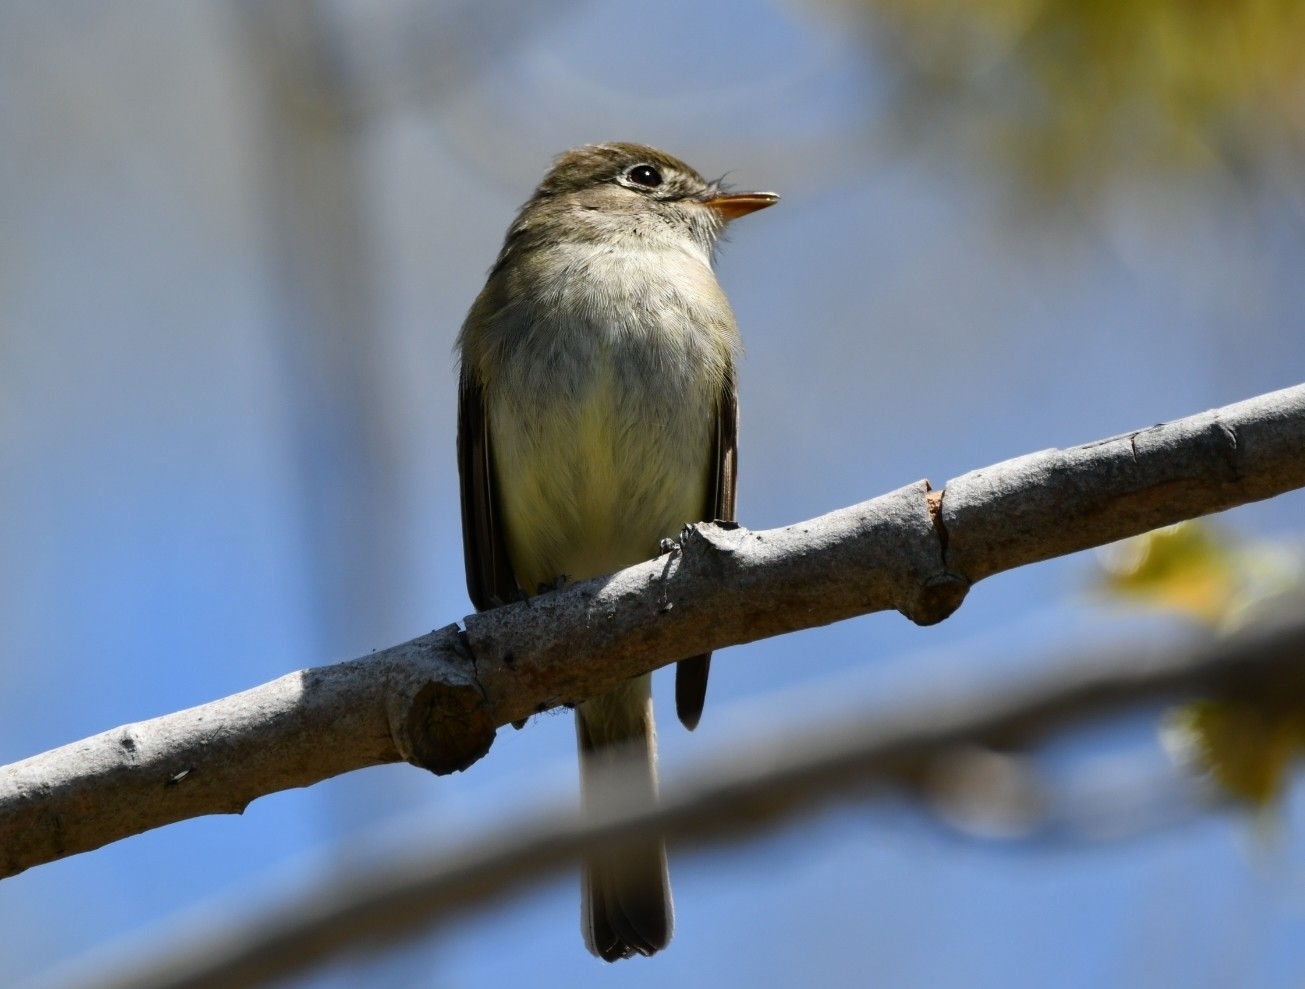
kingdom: Animalia
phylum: Chordata
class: Aves
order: Passeriformes
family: Tyrannidae
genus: Empidonax
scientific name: Empidonax minimus
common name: Least flycatcher
